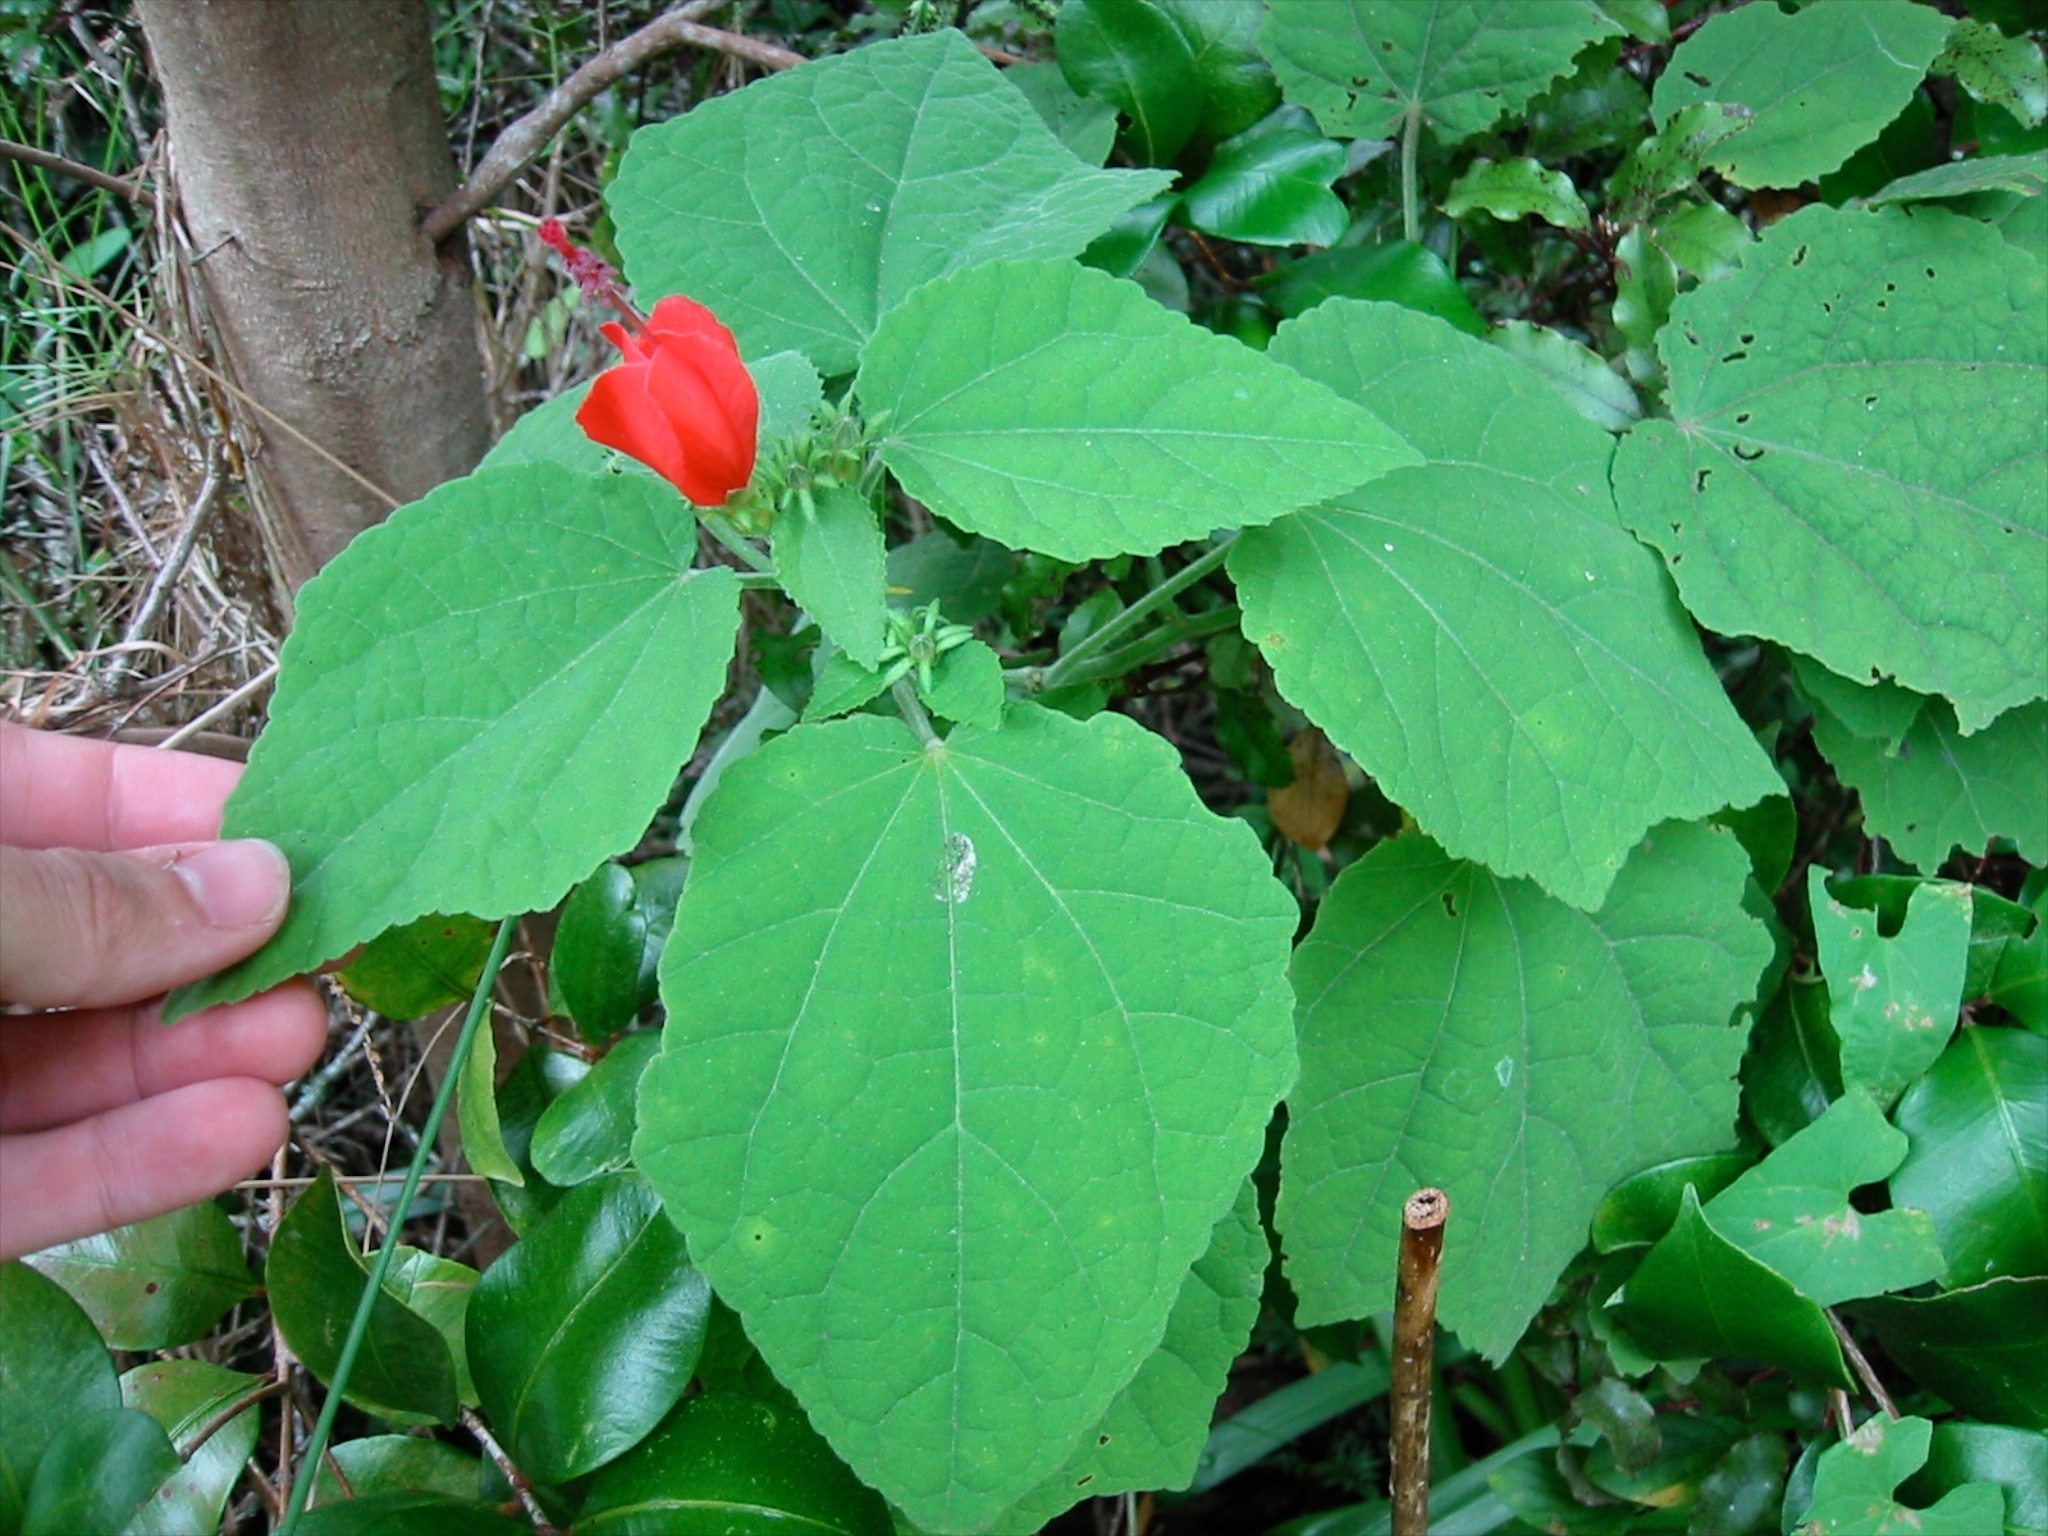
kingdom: Plantae
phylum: Tracheophyta
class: Magnoliopsida
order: Malvales
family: Malvaceae
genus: Malvaviscus
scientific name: Malvaviscus arboreus
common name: Wax mallow
